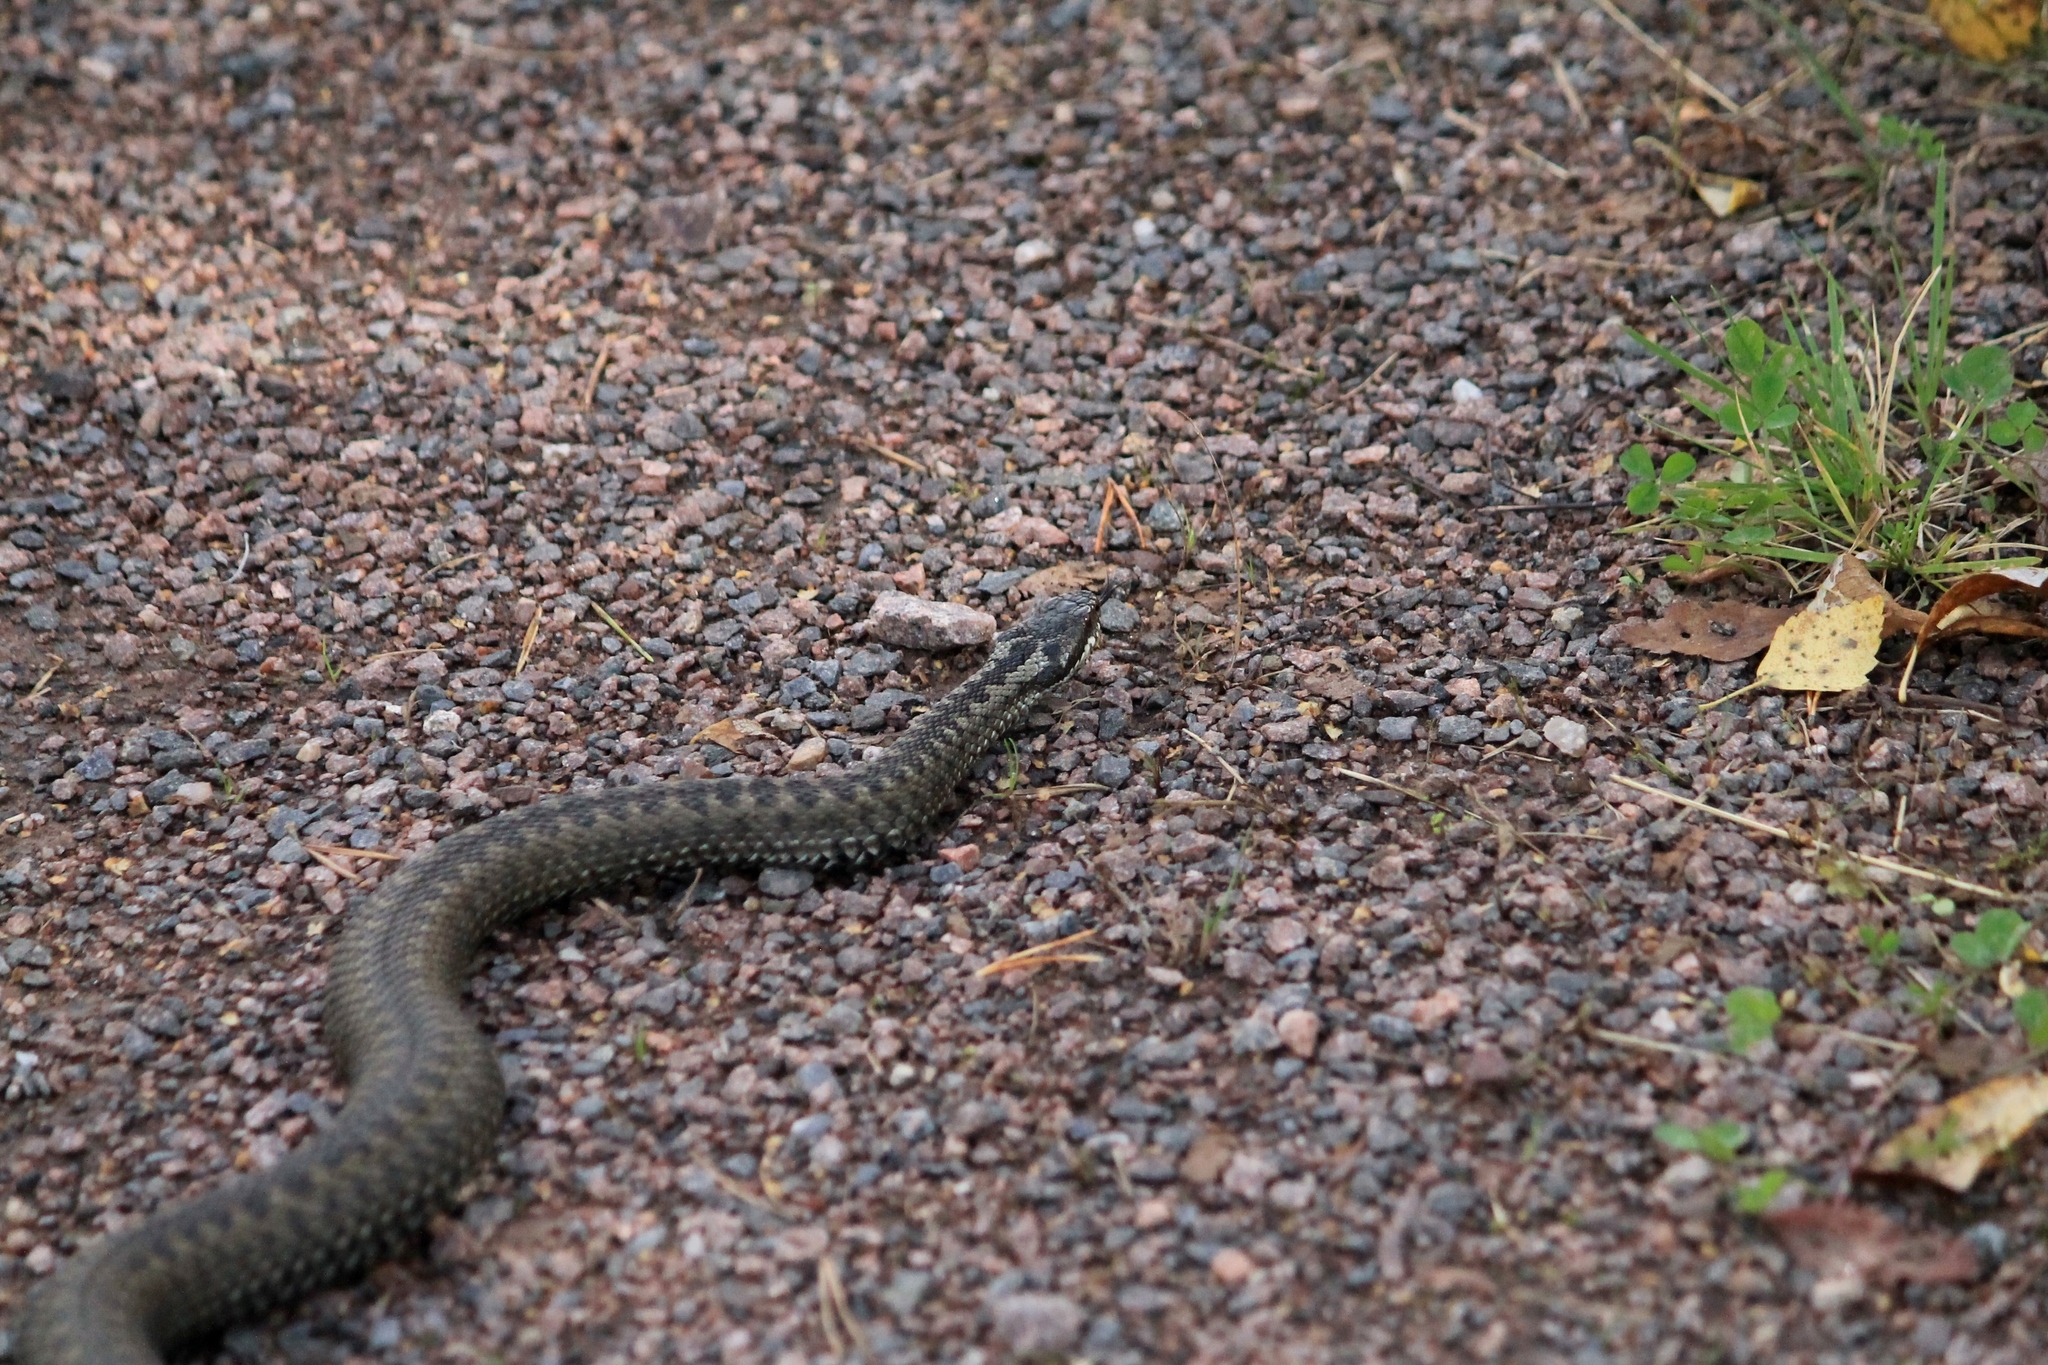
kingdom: Animalia
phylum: Chordata
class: Squamata
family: Viperidae
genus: Vipera
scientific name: Vipera berus
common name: Adder
